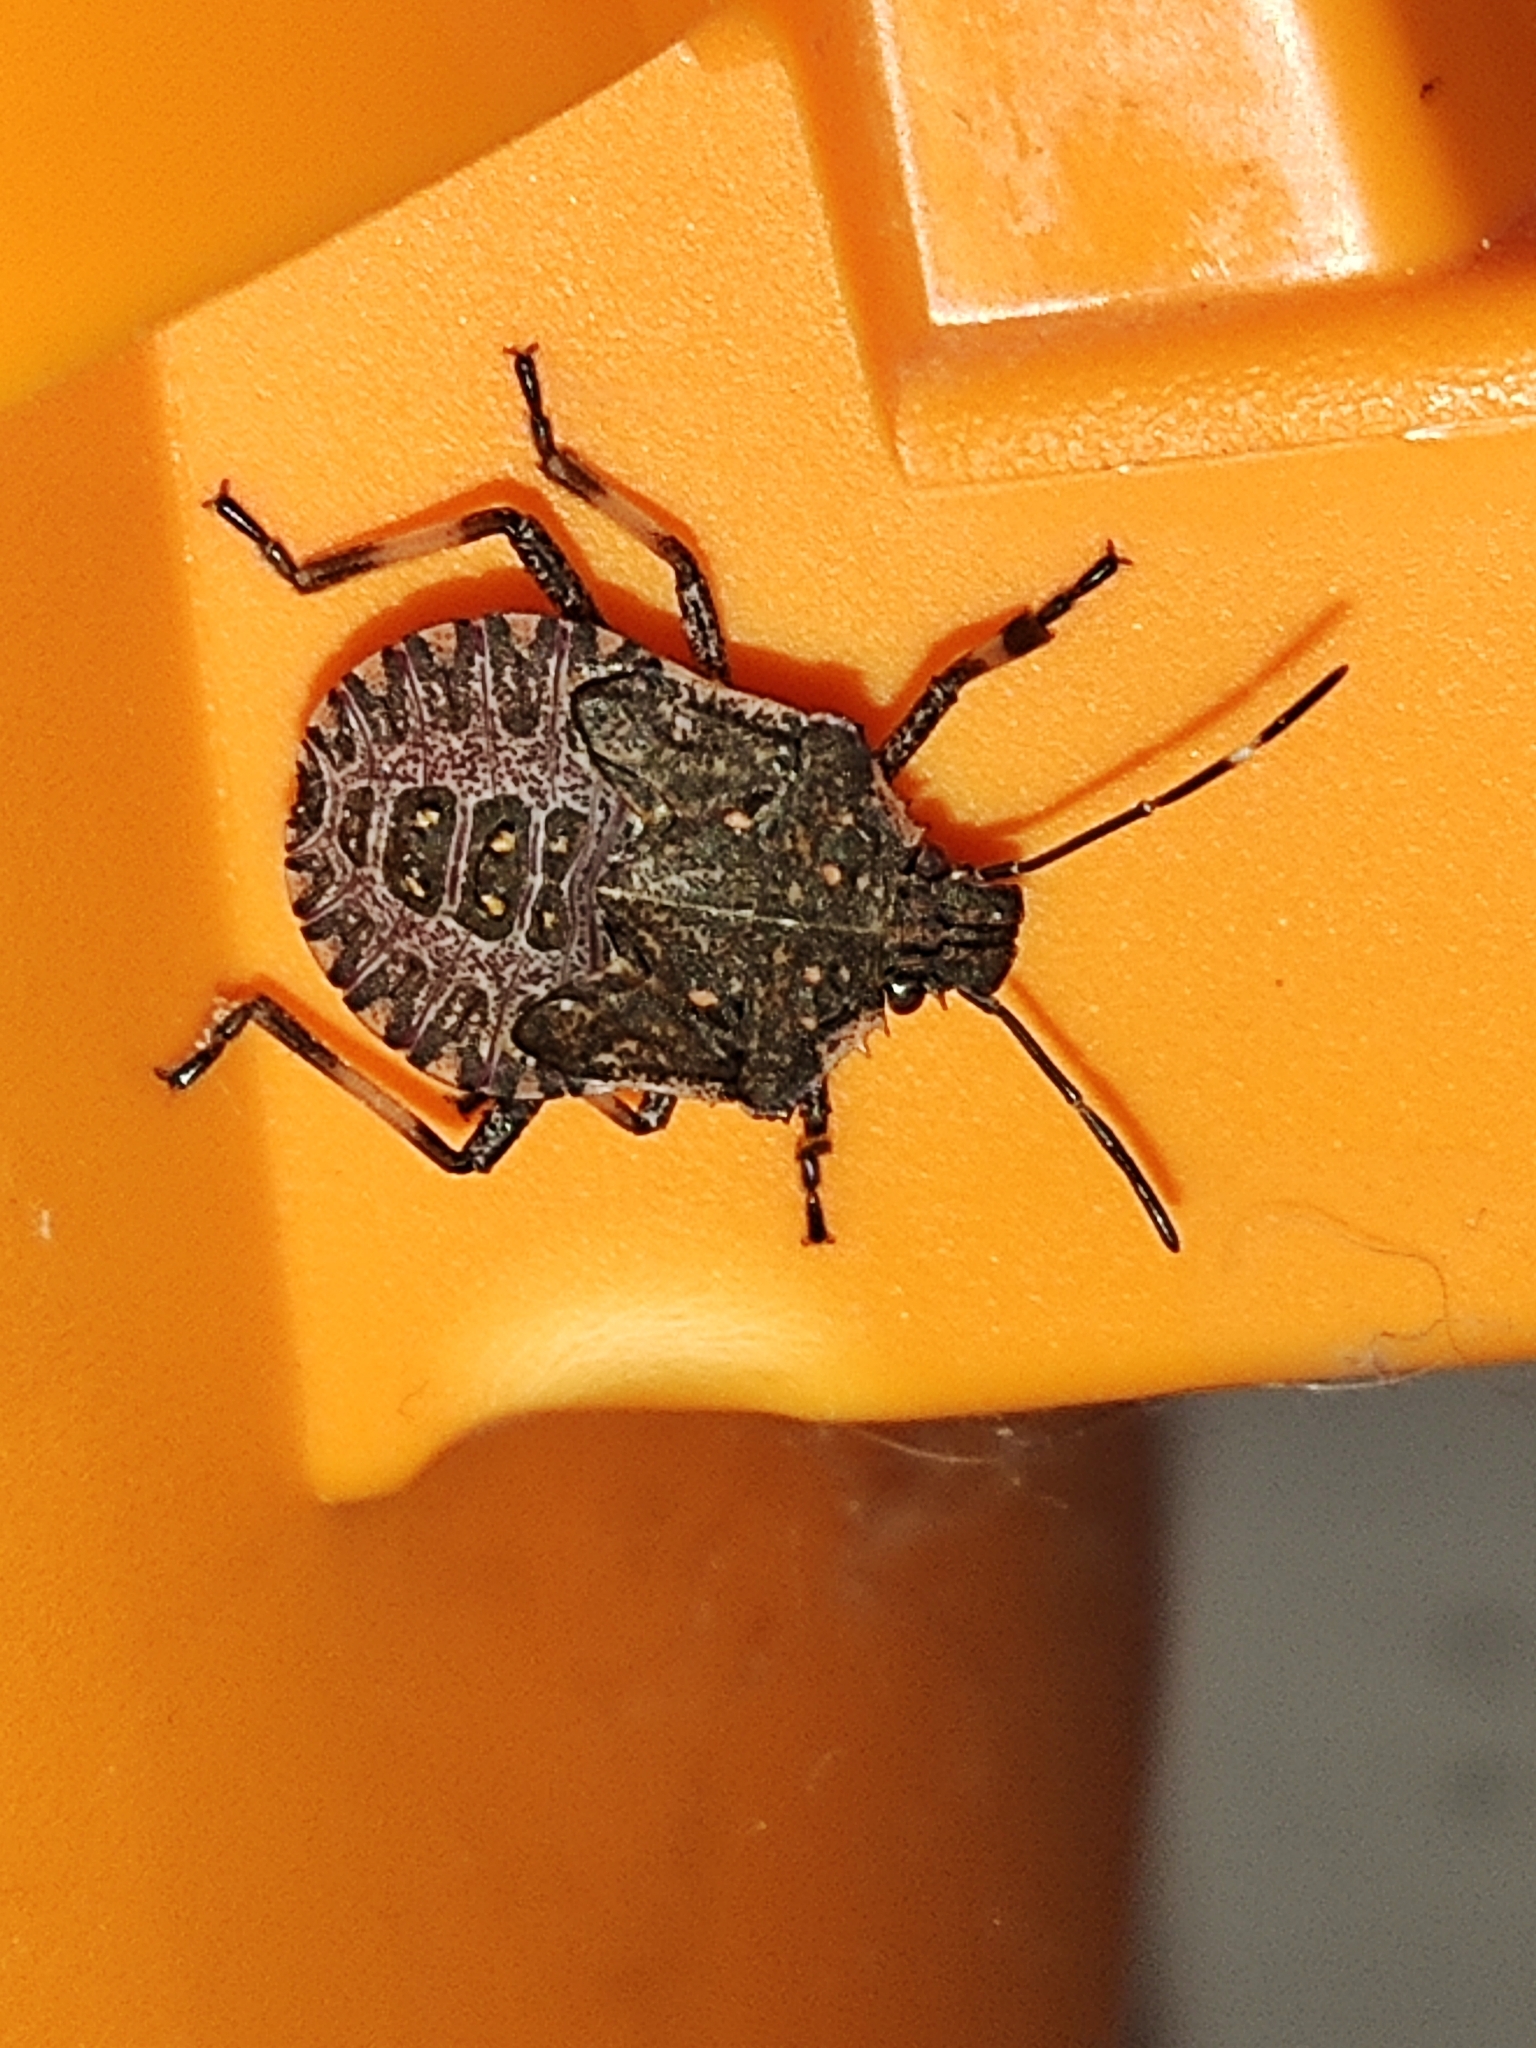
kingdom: Animalia
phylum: Arthropoda
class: Insecta
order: Hemiptera
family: Pentatomidae
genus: Halyomorpha
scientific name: Halyomorpha halys
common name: Brown marmorated stink bug
